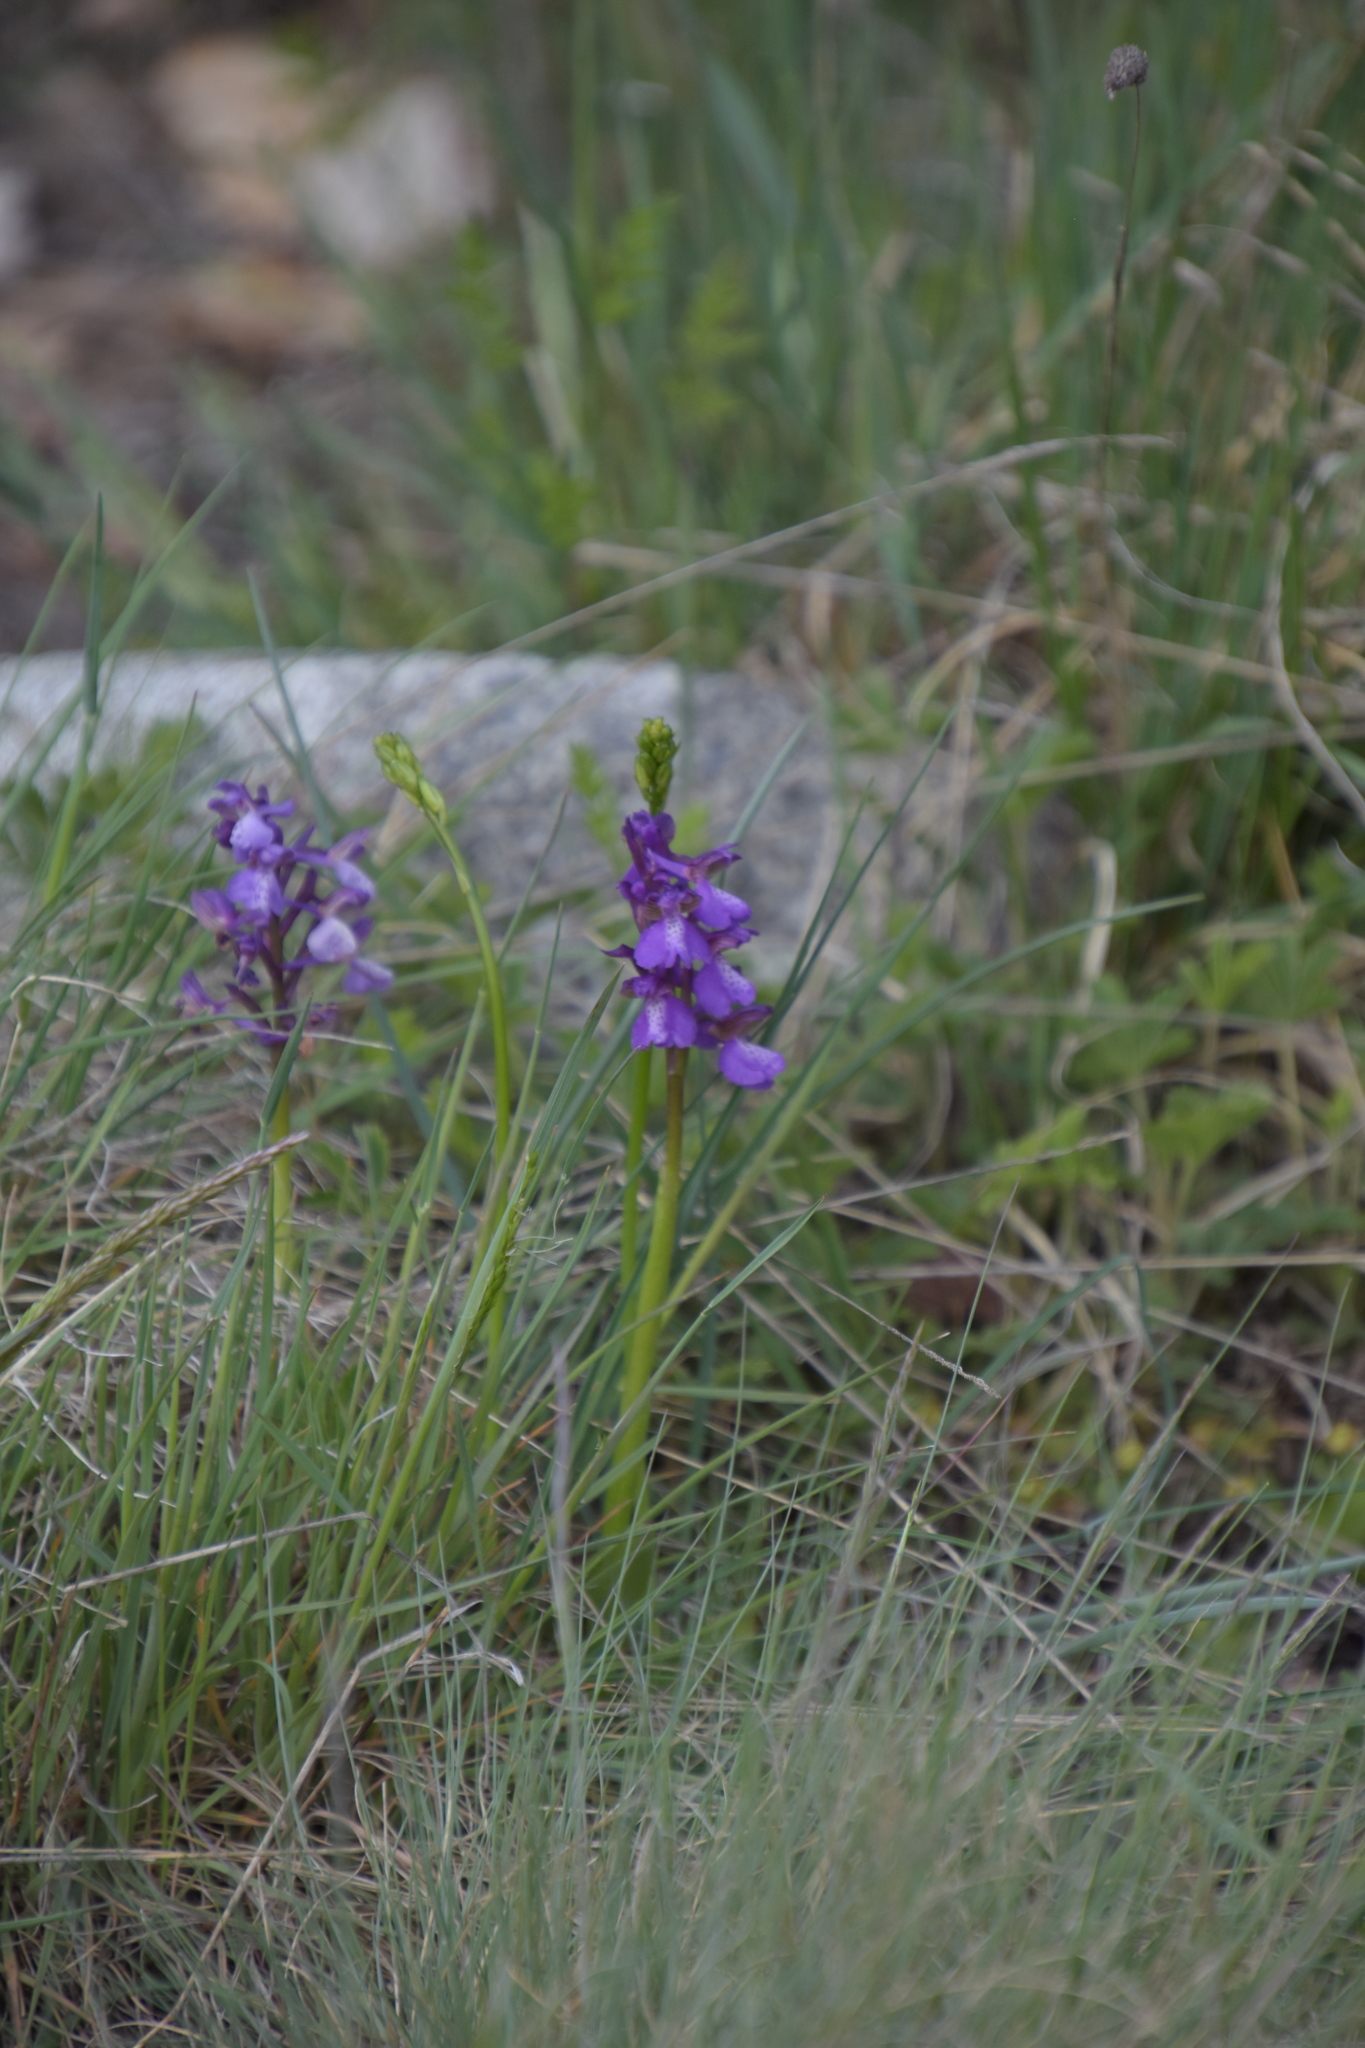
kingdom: Plantae
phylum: Tracheophyta
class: Liliopsida
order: Asparagales
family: Orchidaceae
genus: Anacamptis
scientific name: Anacamptis morio
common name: Green-winged orchid
